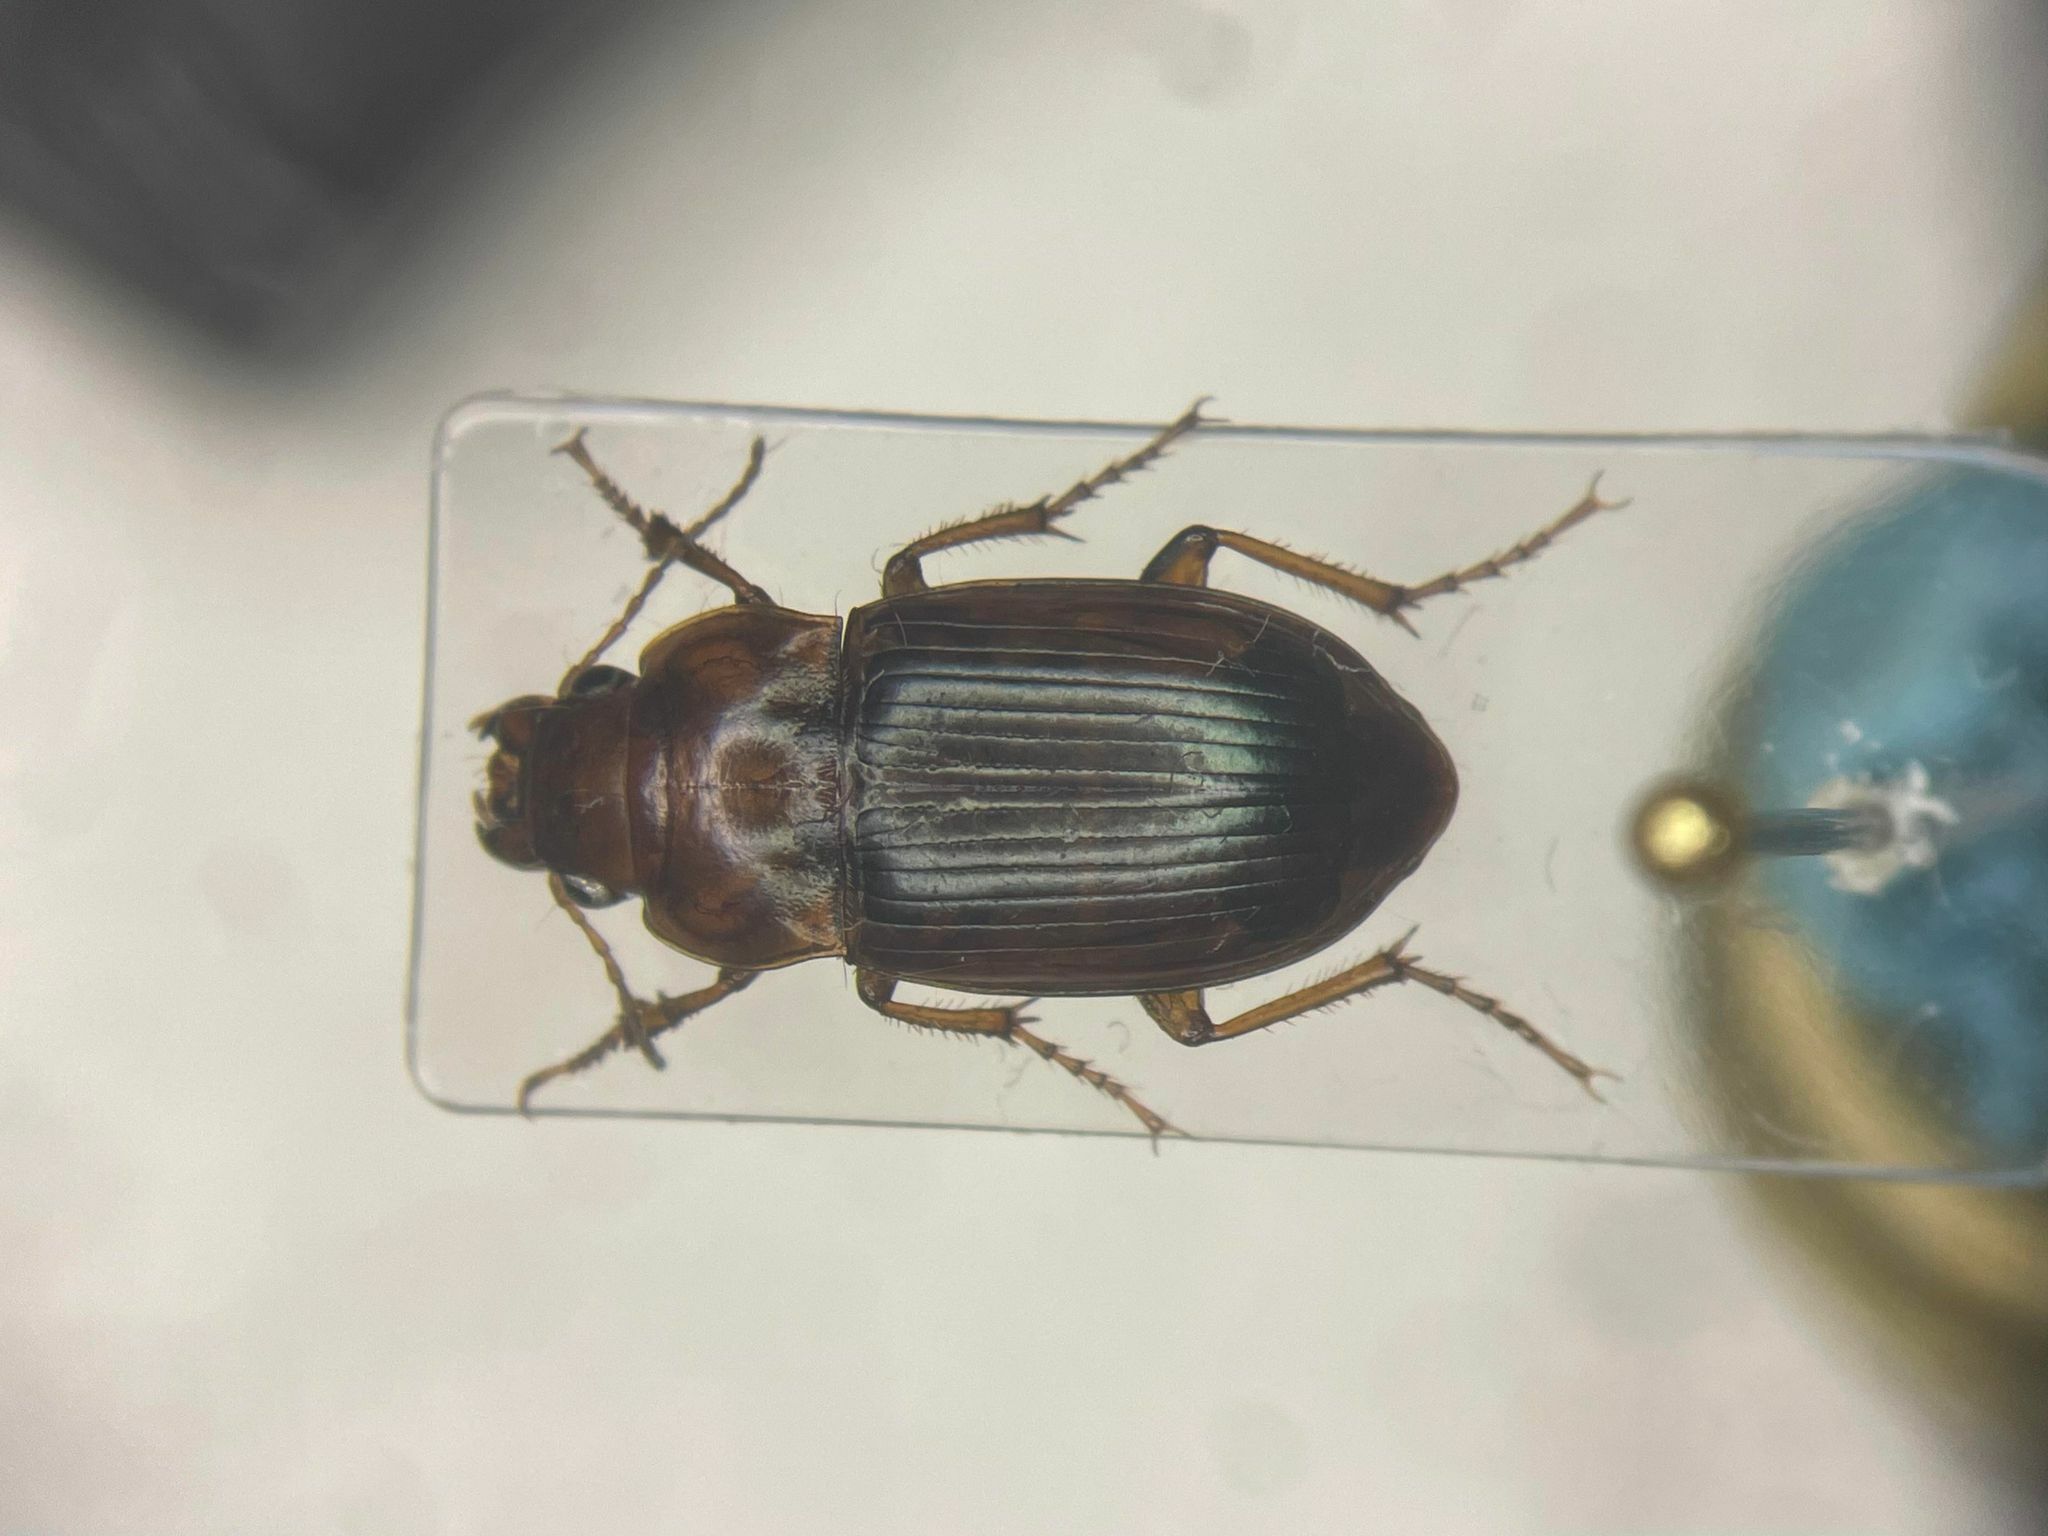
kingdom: Animalia
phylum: Arthropoda
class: Insecta
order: Coleoptera
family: Carabidae
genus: Amara
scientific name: Amara fulva
